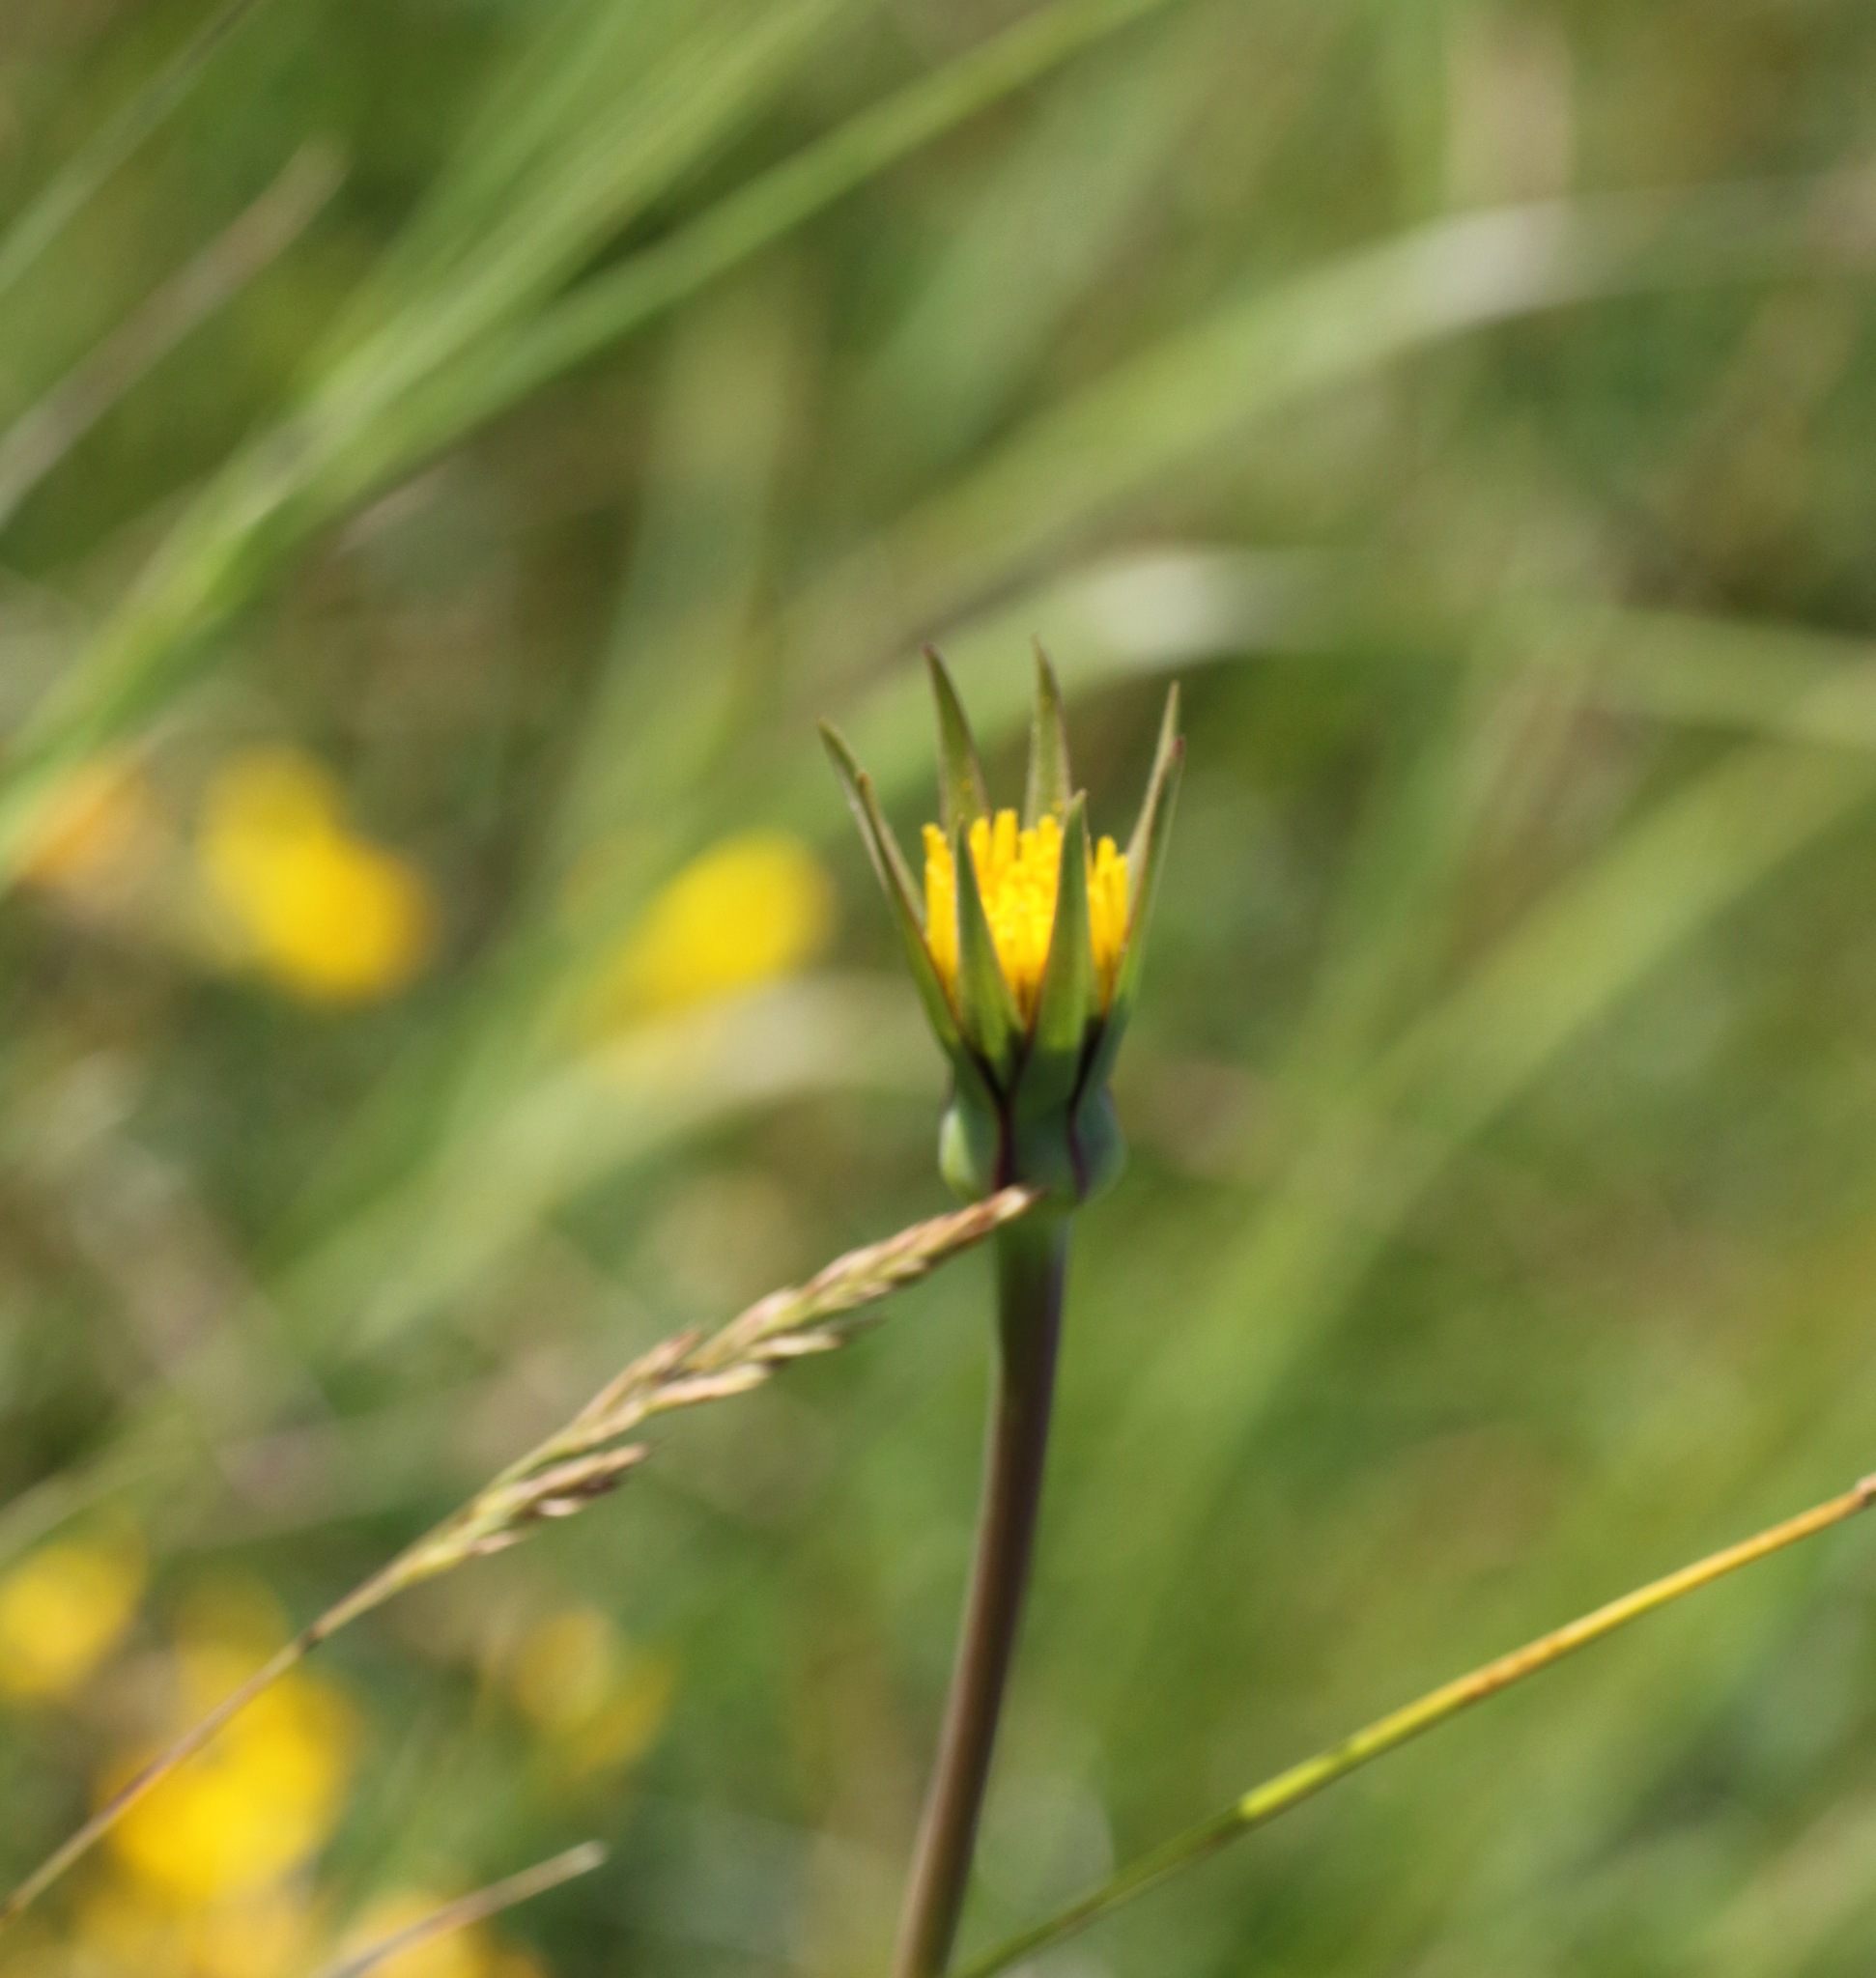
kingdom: Plantae
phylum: Tracheophyta
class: Magnoliopsida
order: Asterales
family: Asteraceae
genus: Tragopogon
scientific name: Tragopogon pratensis
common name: Goat's-beard
